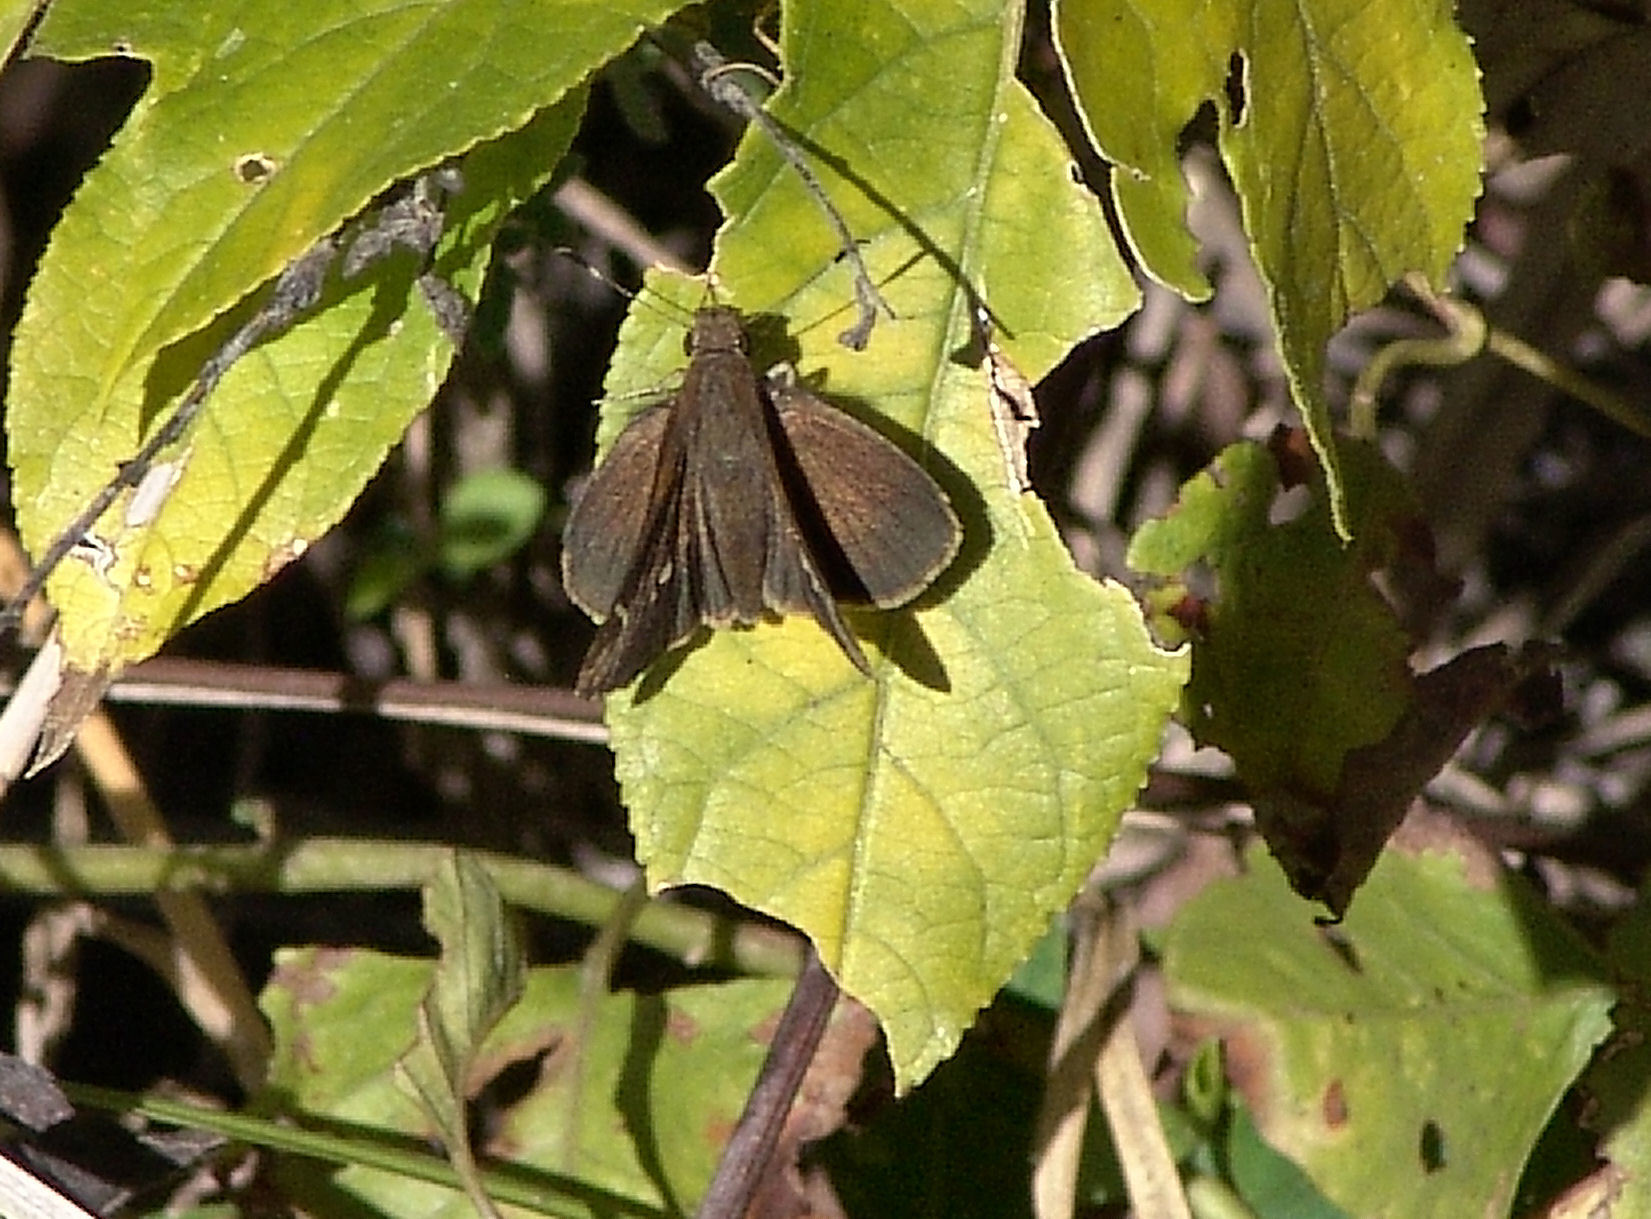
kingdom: Animalia
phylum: Arthropoda
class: Insecta
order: Lepidoptera
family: Hesperiidae
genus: Lerema
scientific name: Lerema accius
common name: Clouded skipper
